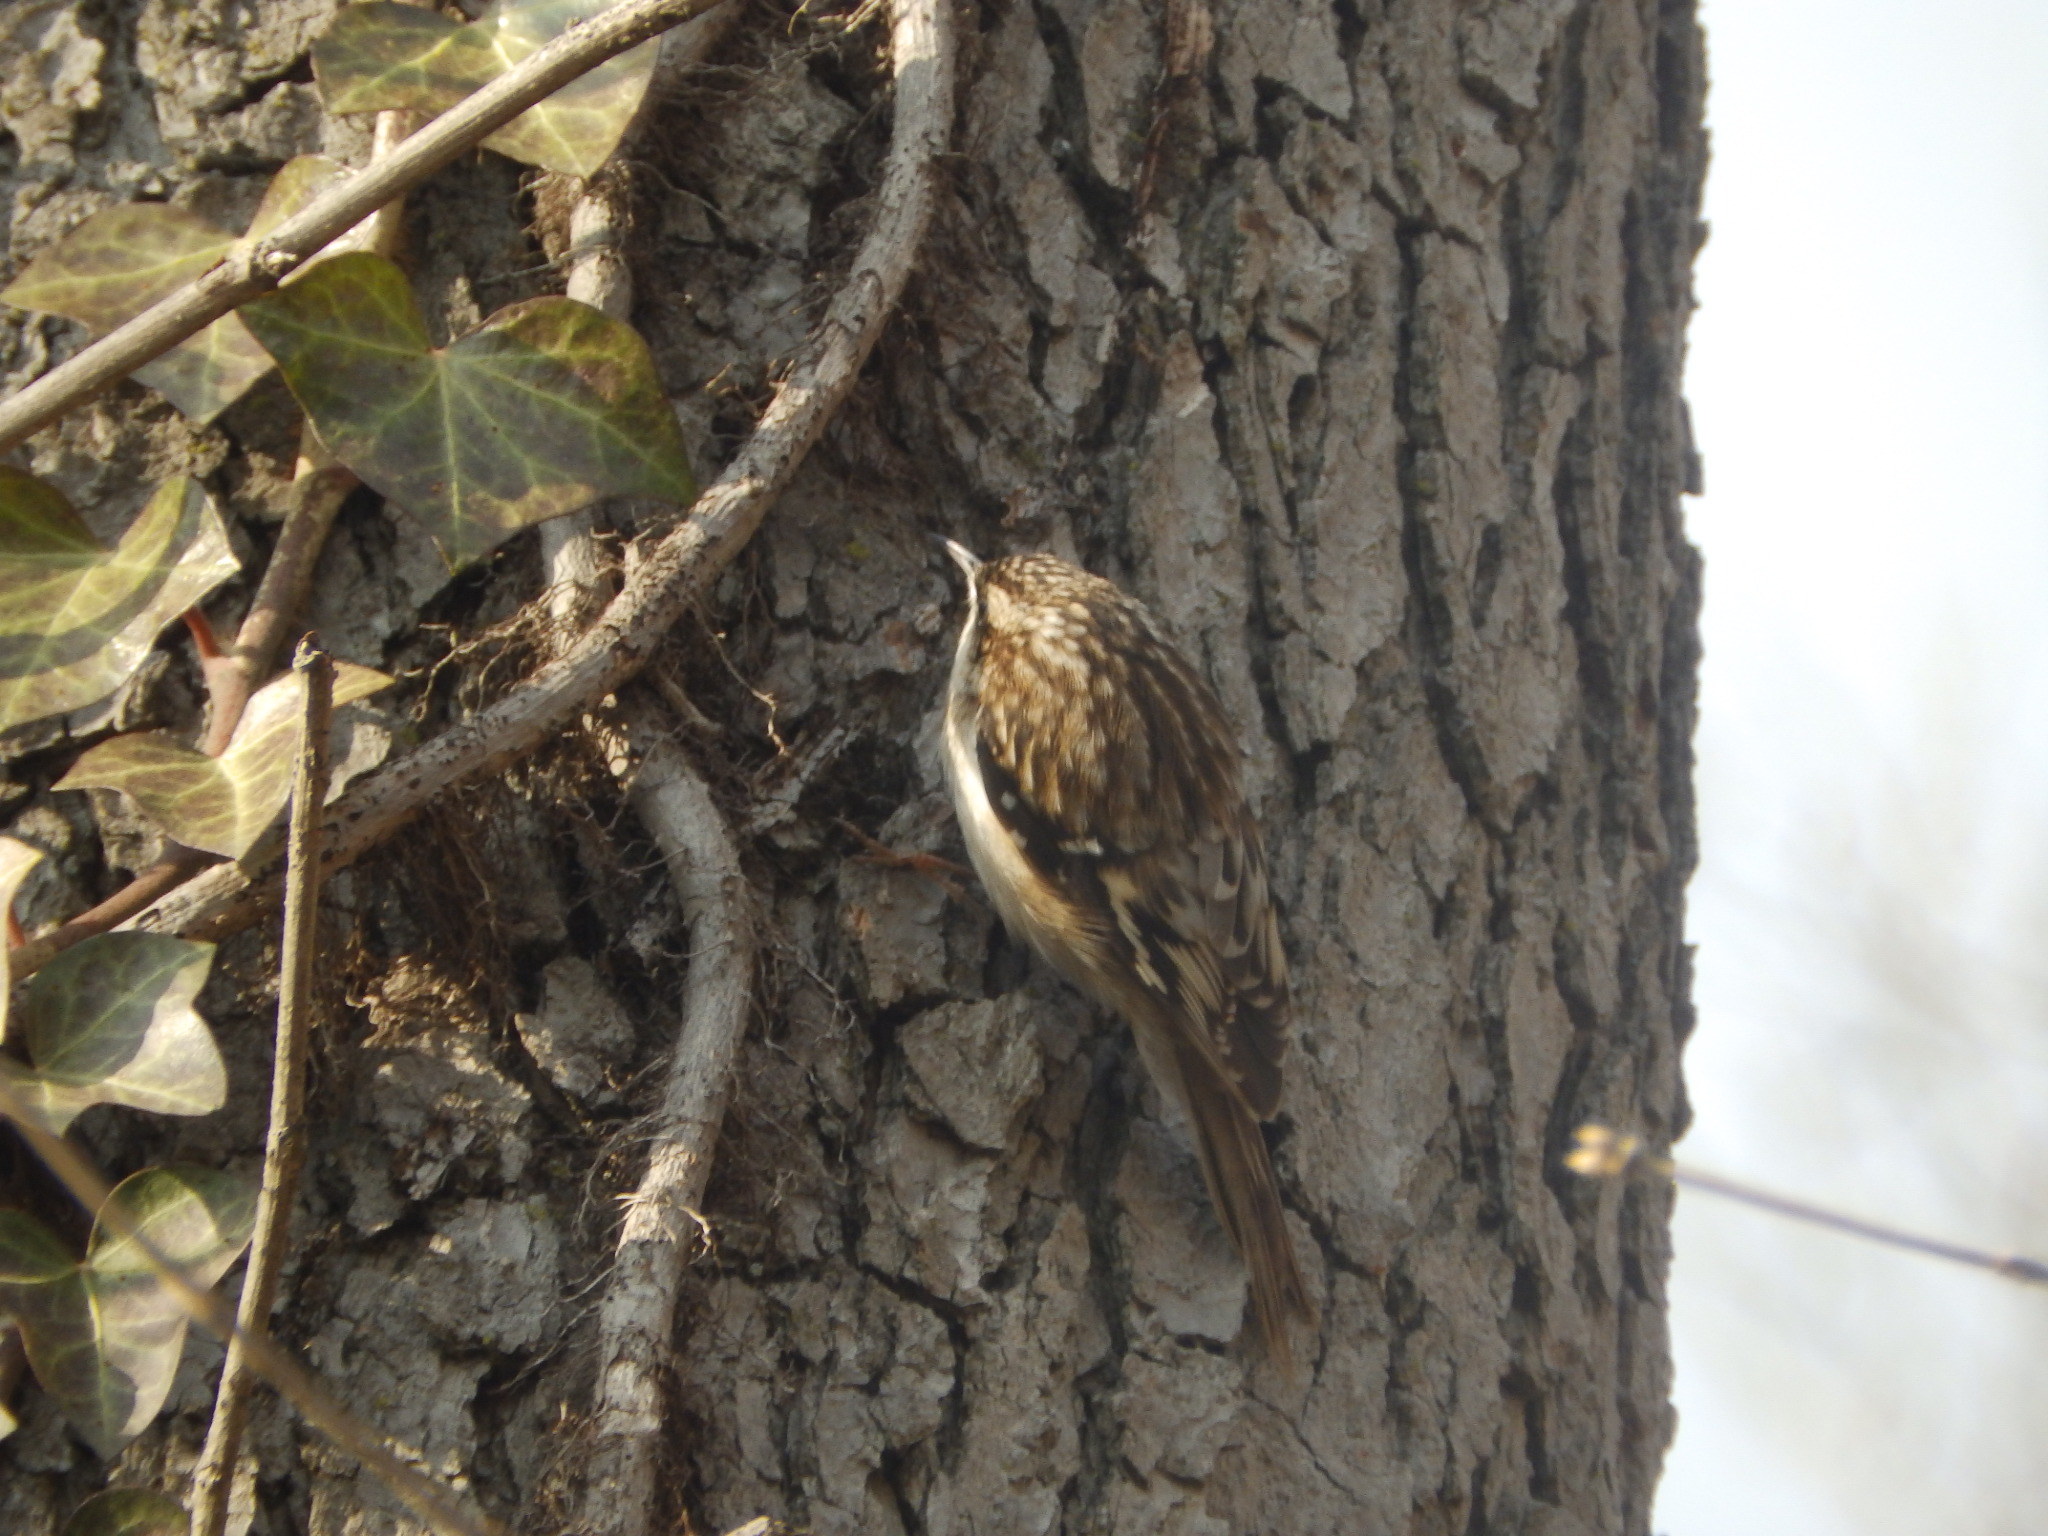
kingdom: Animalia
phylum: Chordata
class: Aves
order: Passeriformes
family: Certhiidae
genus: Certhia
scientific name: Certhia americana
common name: Brown creeper
